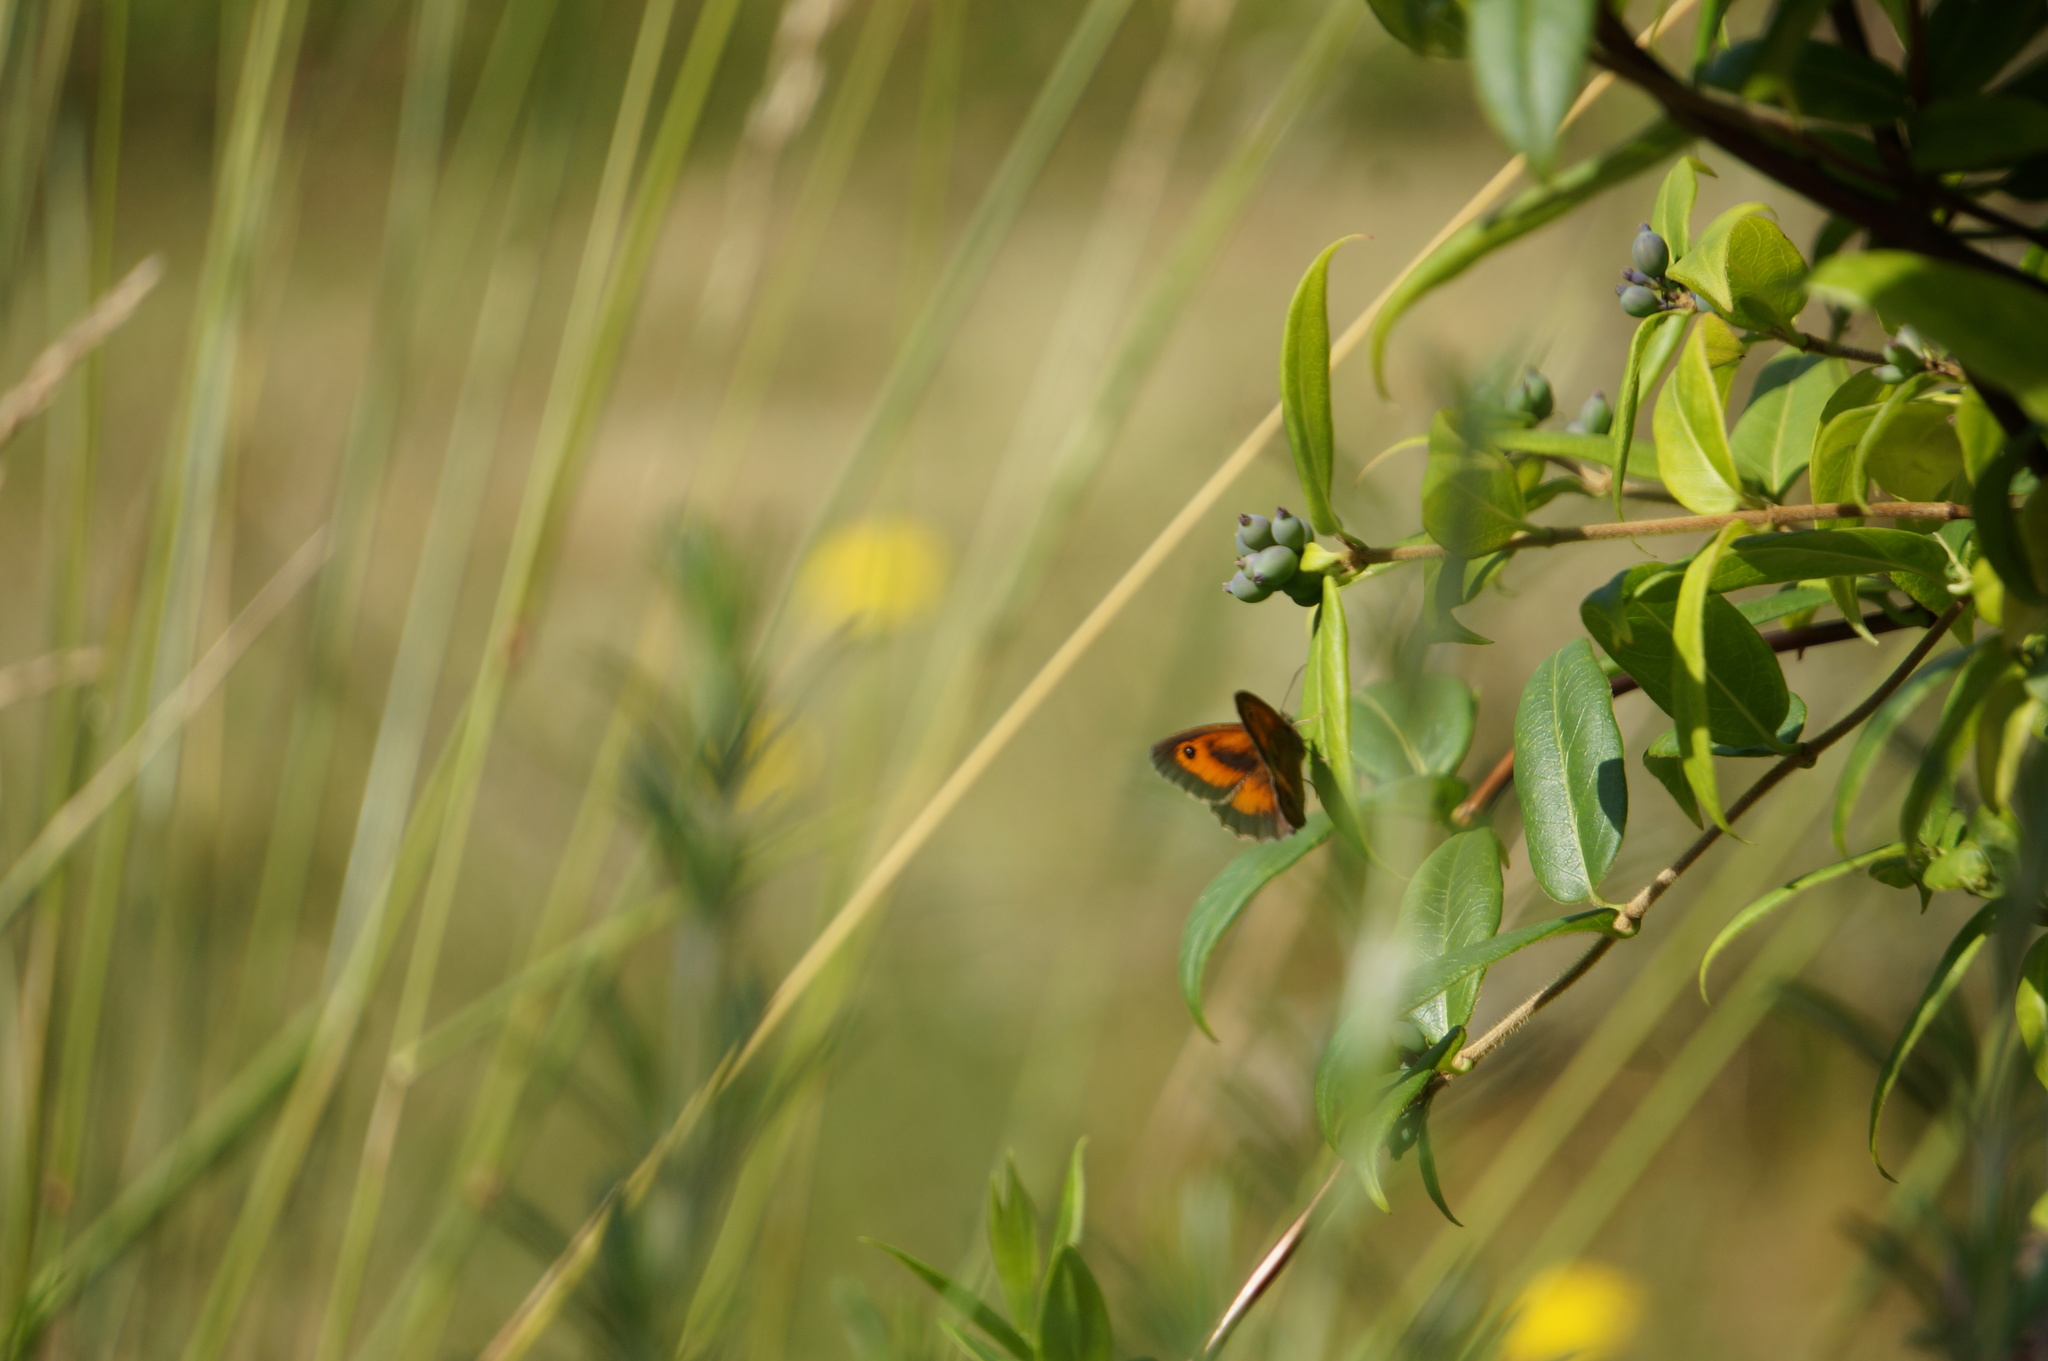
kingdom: Animalia
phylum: Arthropoda
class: Insecta
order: Lepidoptera
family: Nymphalidae
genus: Pyronia
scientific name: Pyronia tithonus
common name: Gatekeeper
